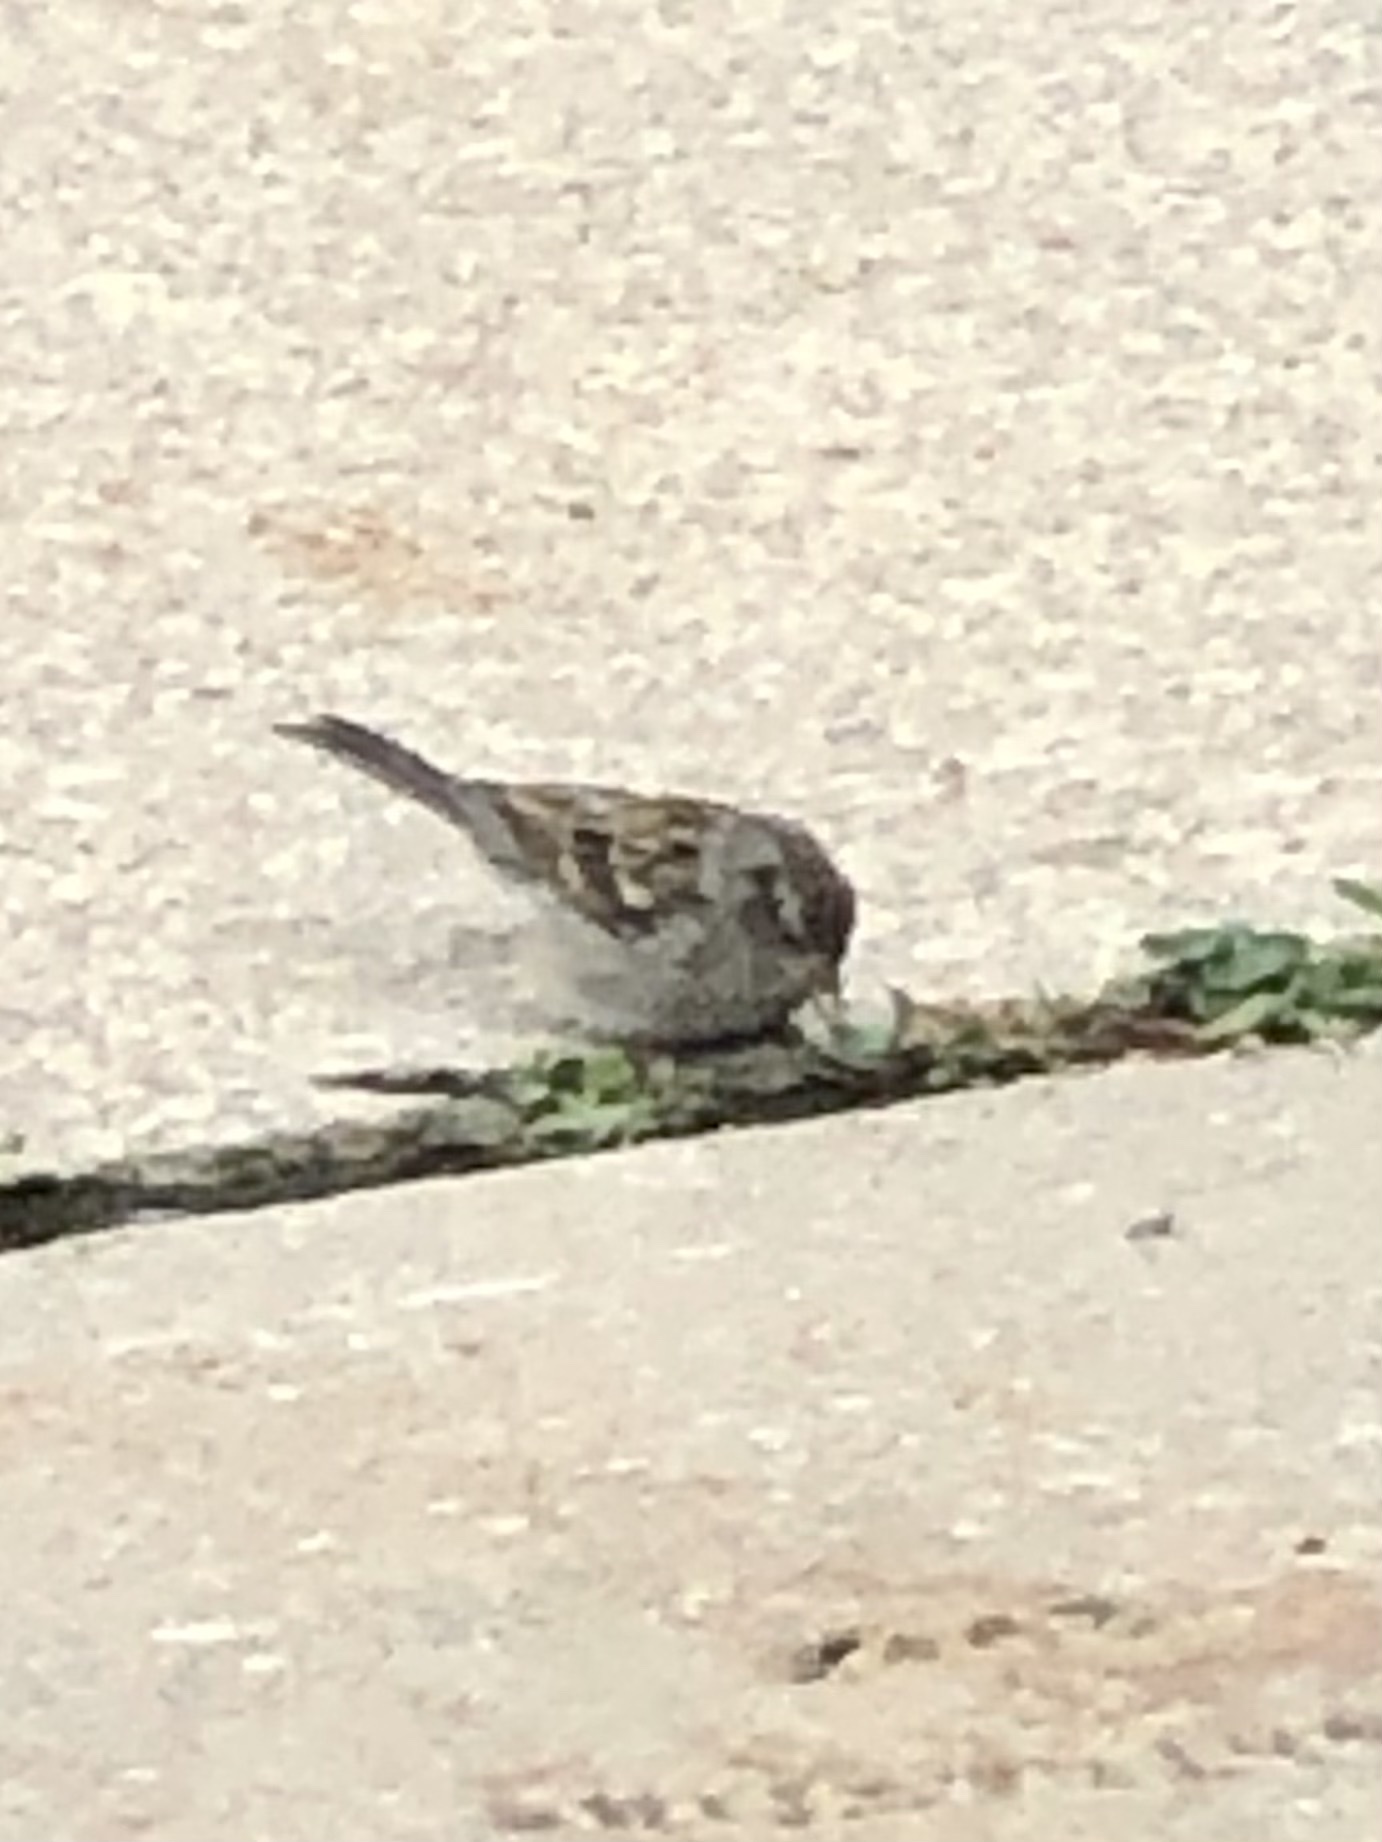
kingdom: Animalia
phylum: Chordata
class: Aves
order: Passeriformes
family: Passeridae
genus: Passer
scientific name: Passer domesticus
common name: House sparrow
